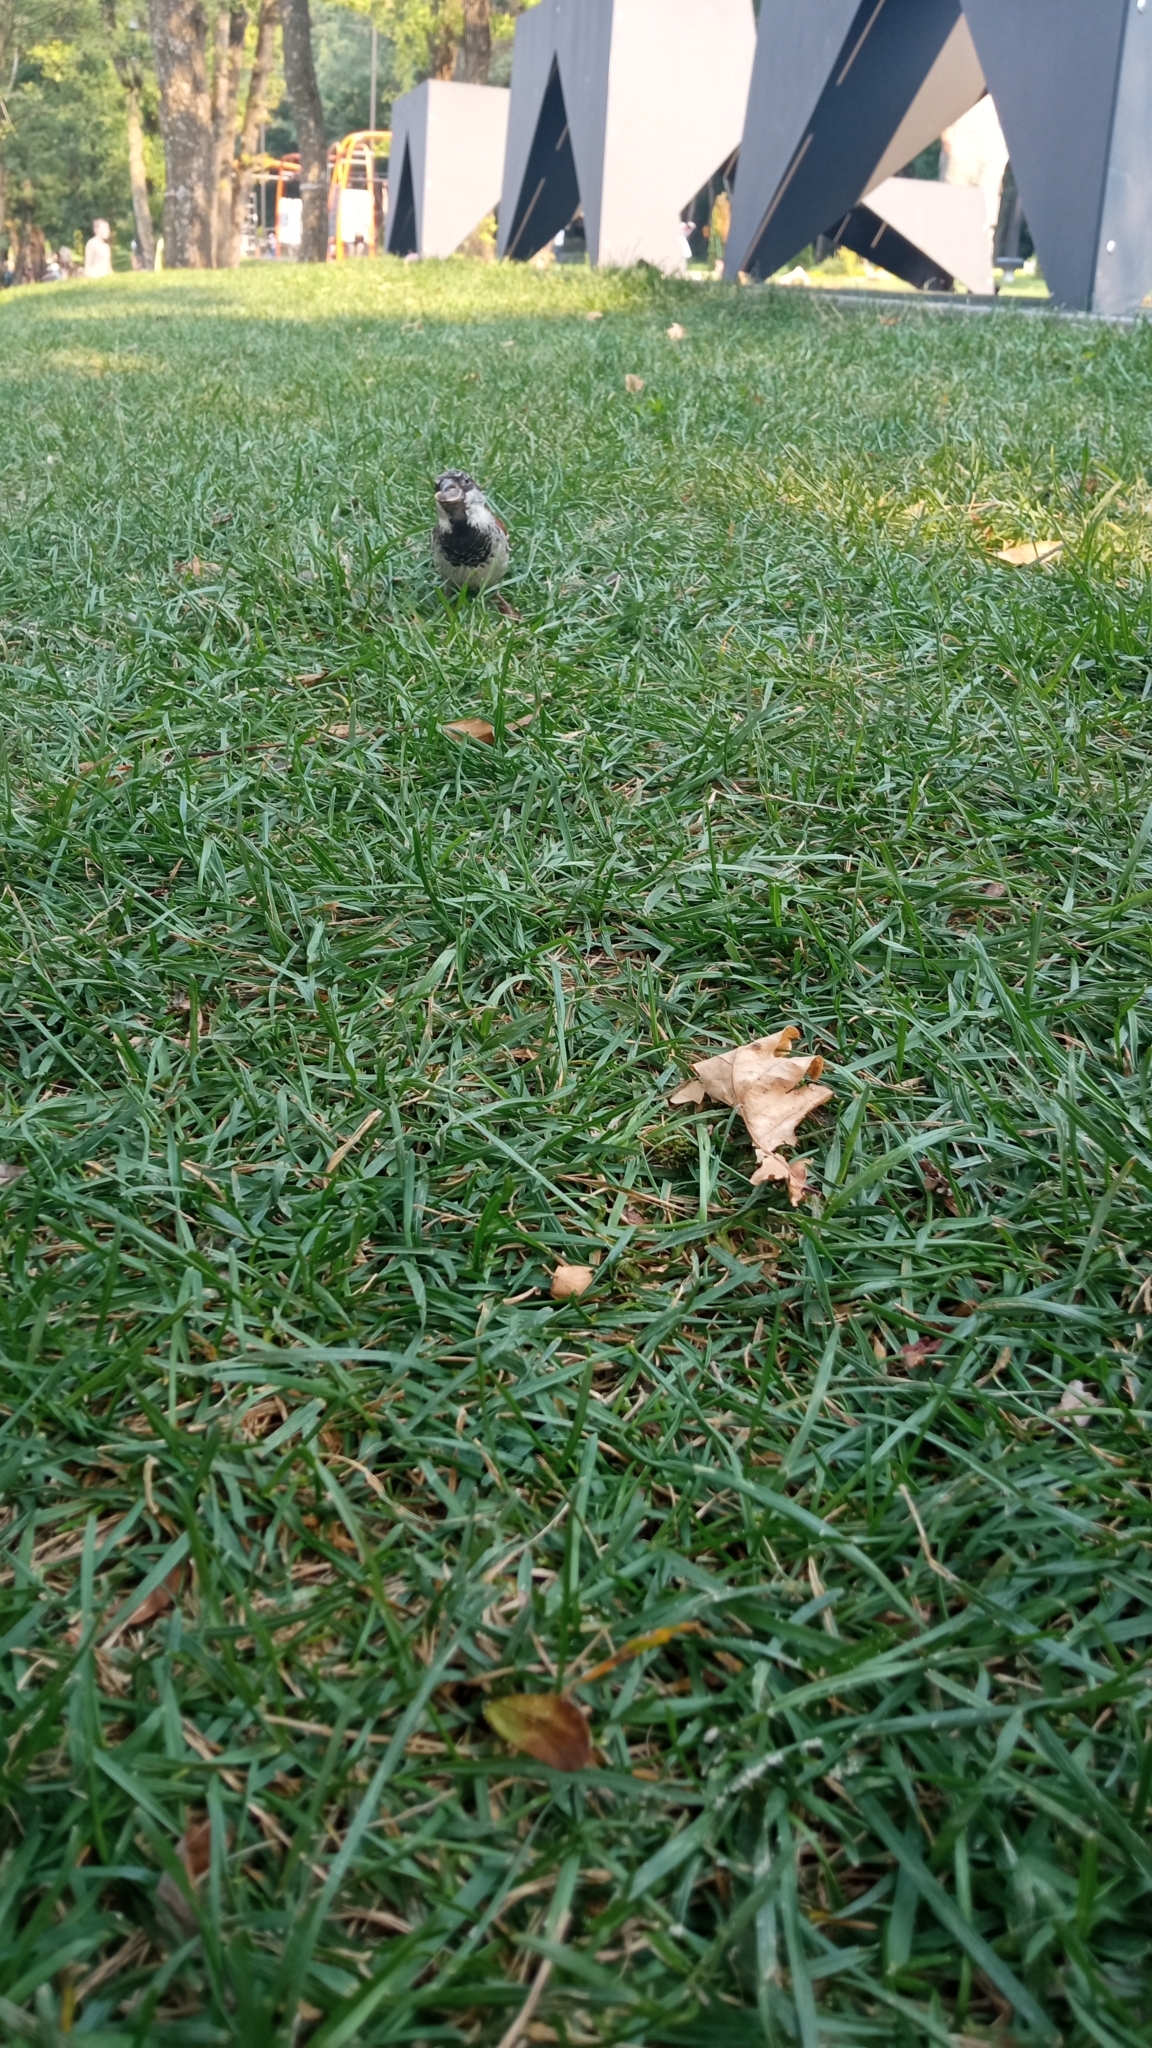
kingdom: Animalia
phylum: Chordata
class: Aves
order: Passeriformes
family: Passeridae
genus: Passer
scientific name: Passer domesticus
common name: House sparrow
